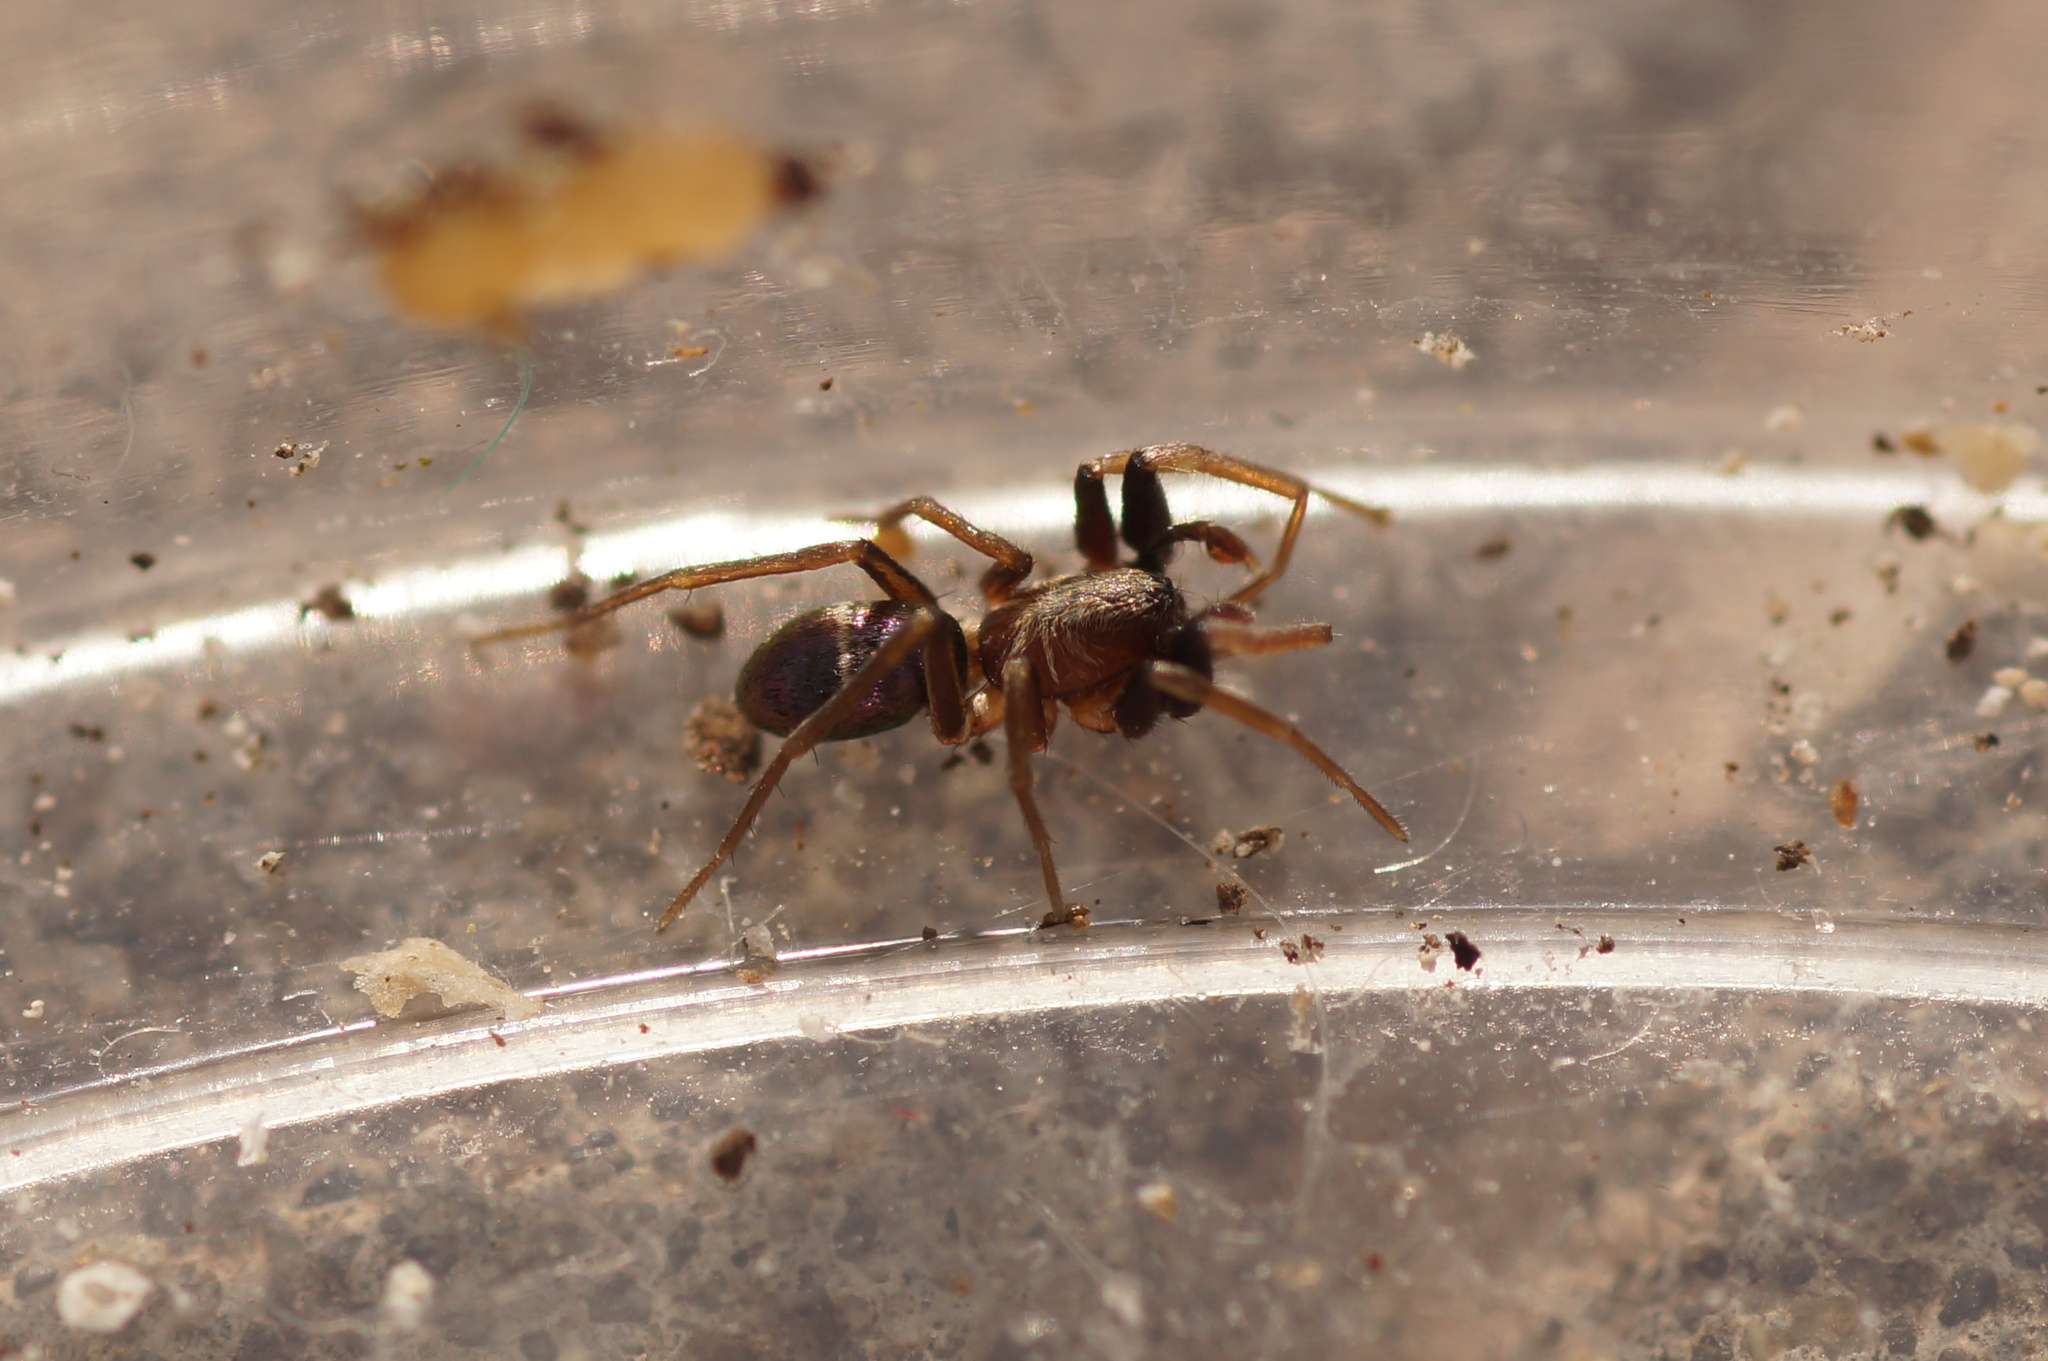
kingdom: Animalia
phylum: Arthropoda
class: Arachnida
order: Araneae
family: Gnaphosidae
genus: Micaria
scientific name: Micaria micans
